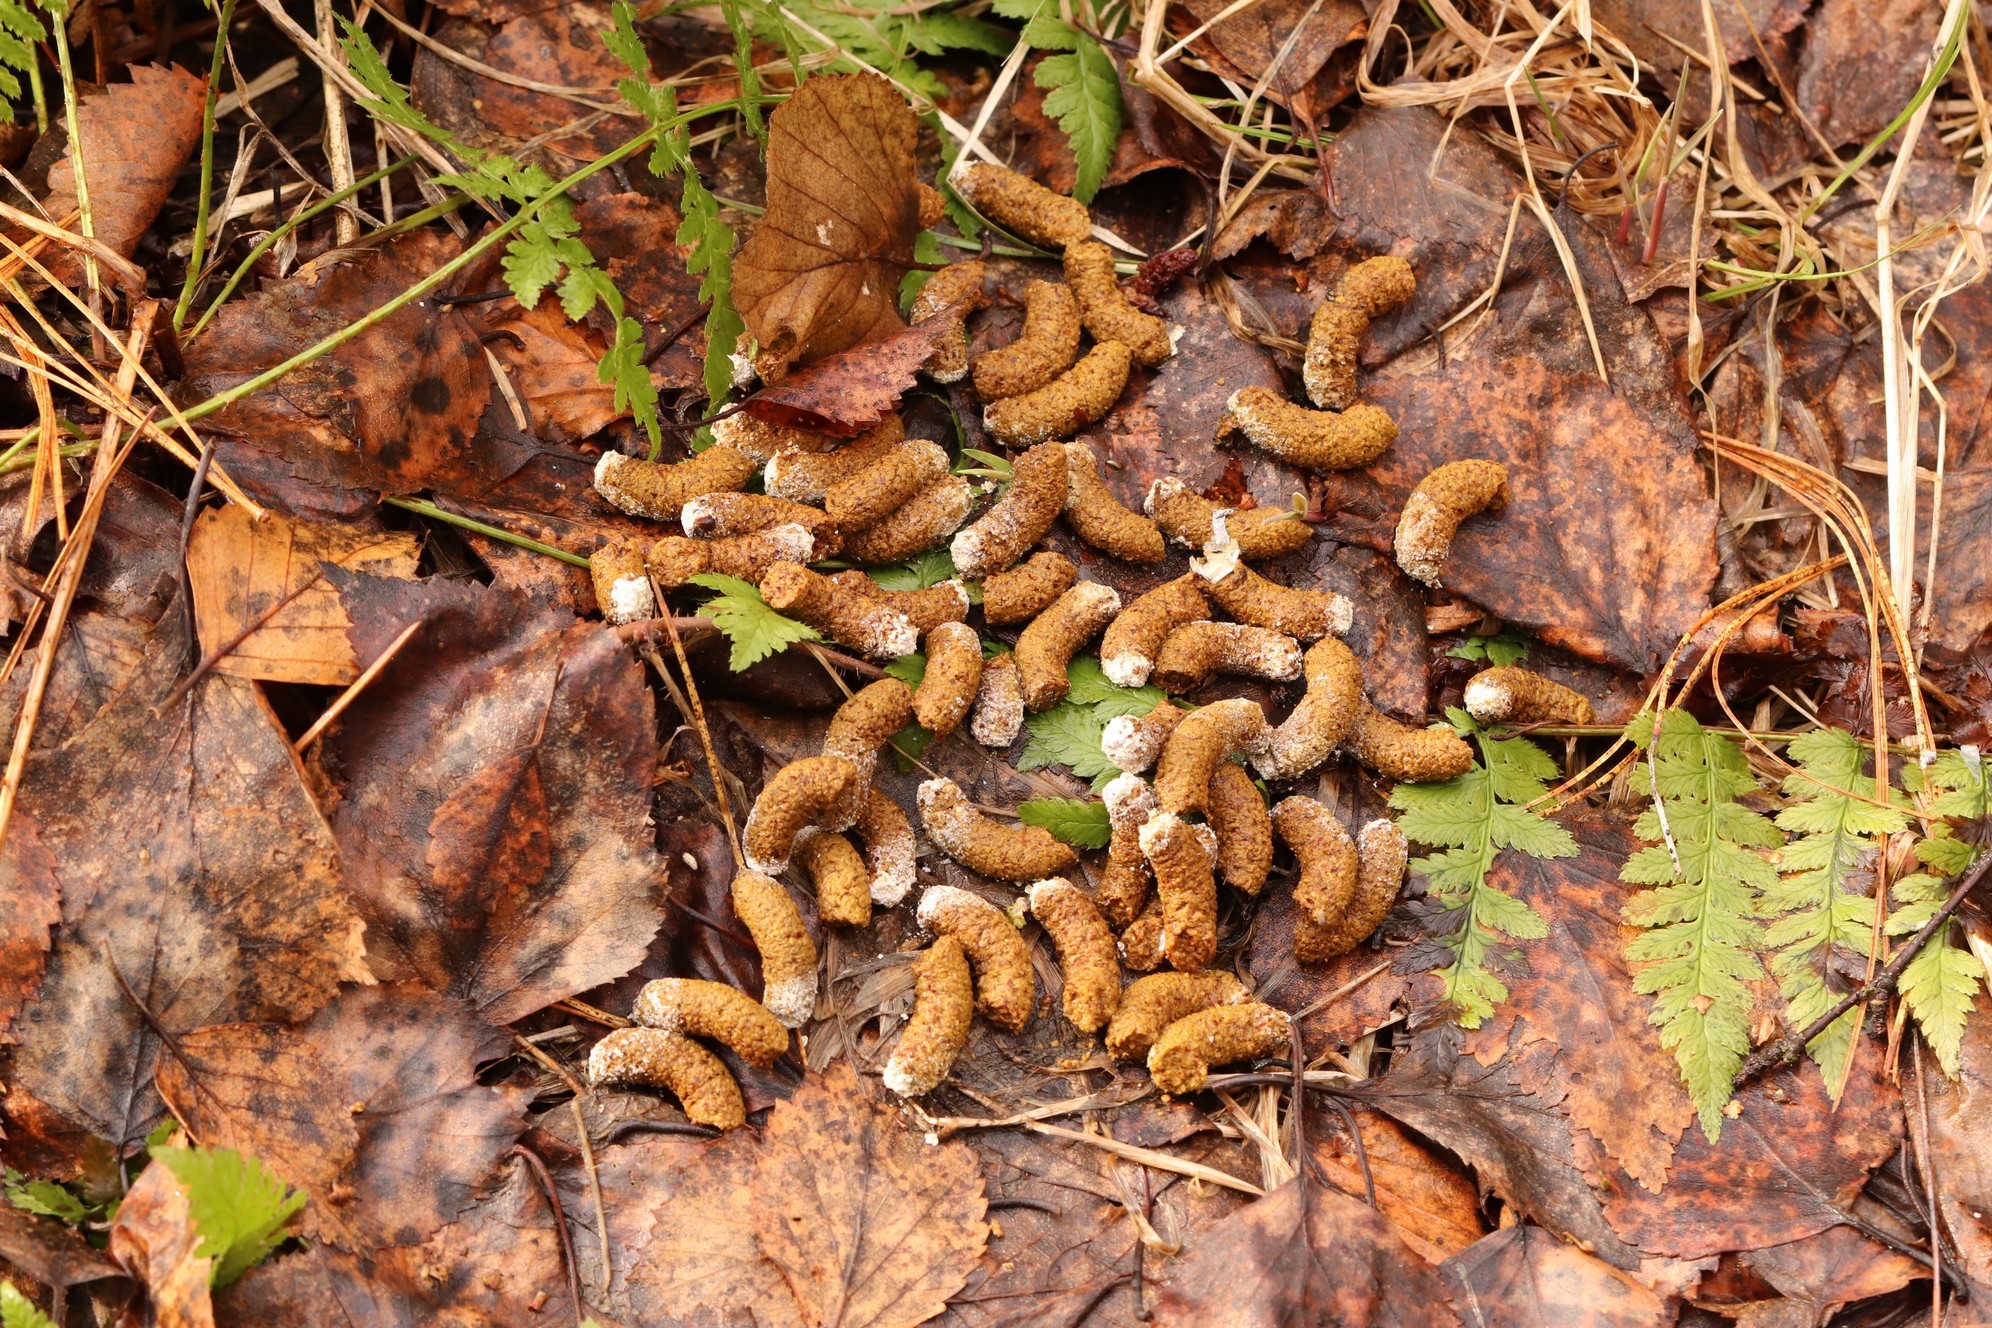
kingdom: Animalia
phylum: Chordata
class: Aves
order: Galliformes
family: Phasianidae
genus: Tetrastes
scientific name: Tetrastes bonasia
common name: Hazel grouse
